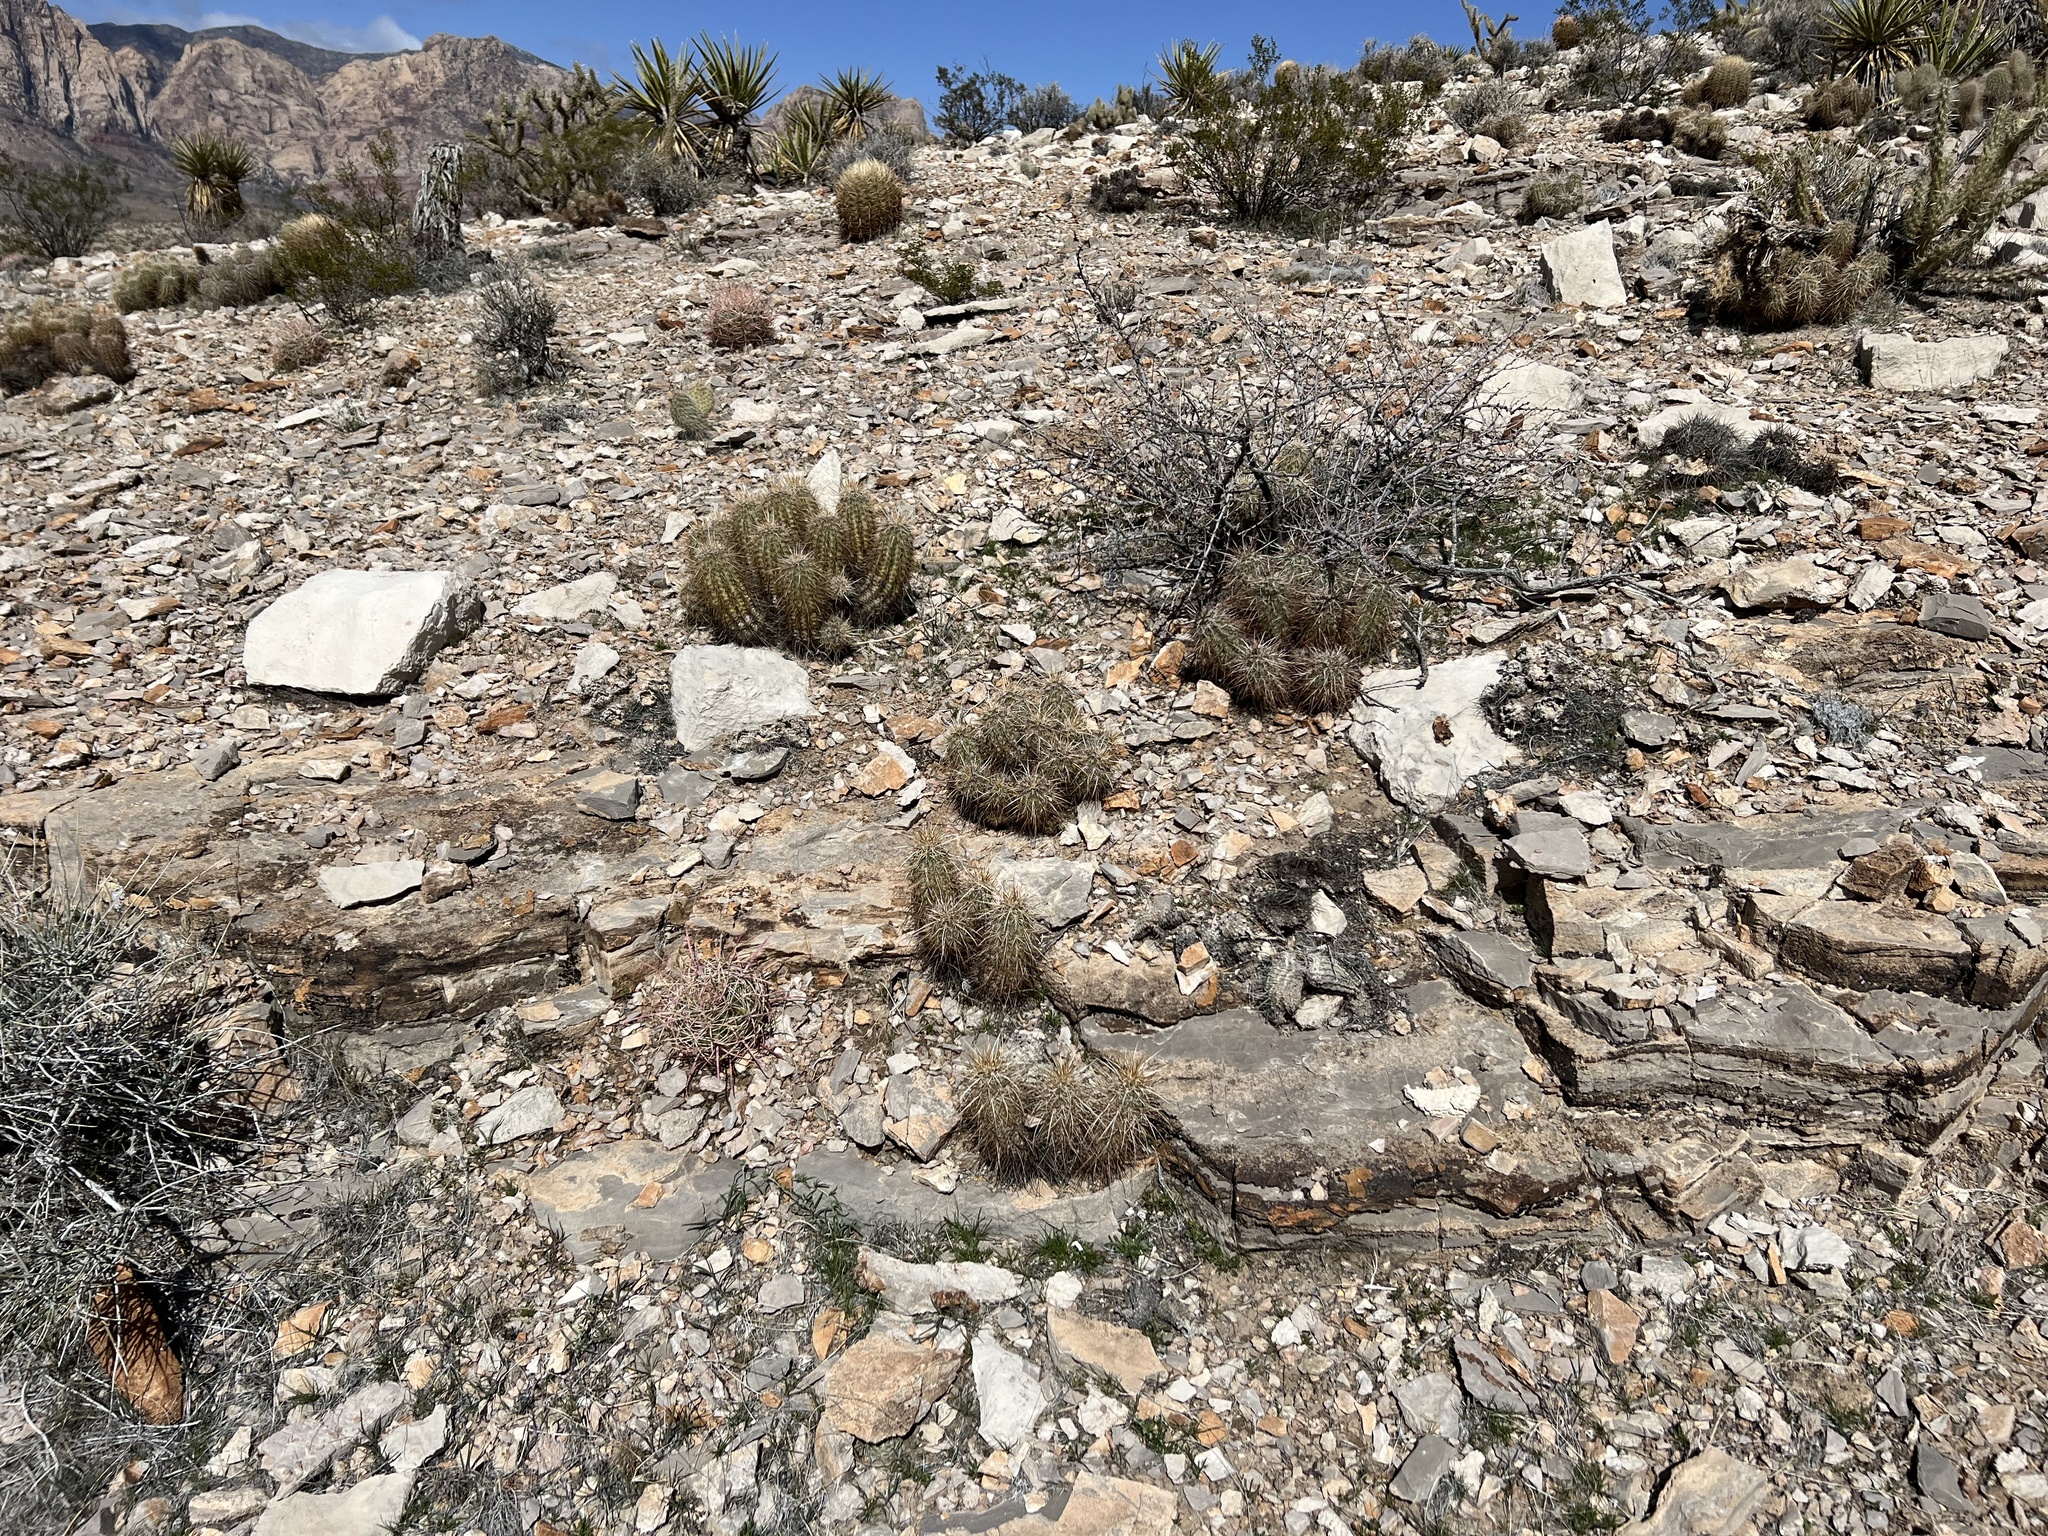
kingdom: Plantae
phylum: Tracheophyta
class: Magnoliopsida
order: Caryophyllales
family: Cactaceae
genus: Echinocereus
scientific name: Echinocereus engelmannii
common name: Engelmann's hedgehog cactus
